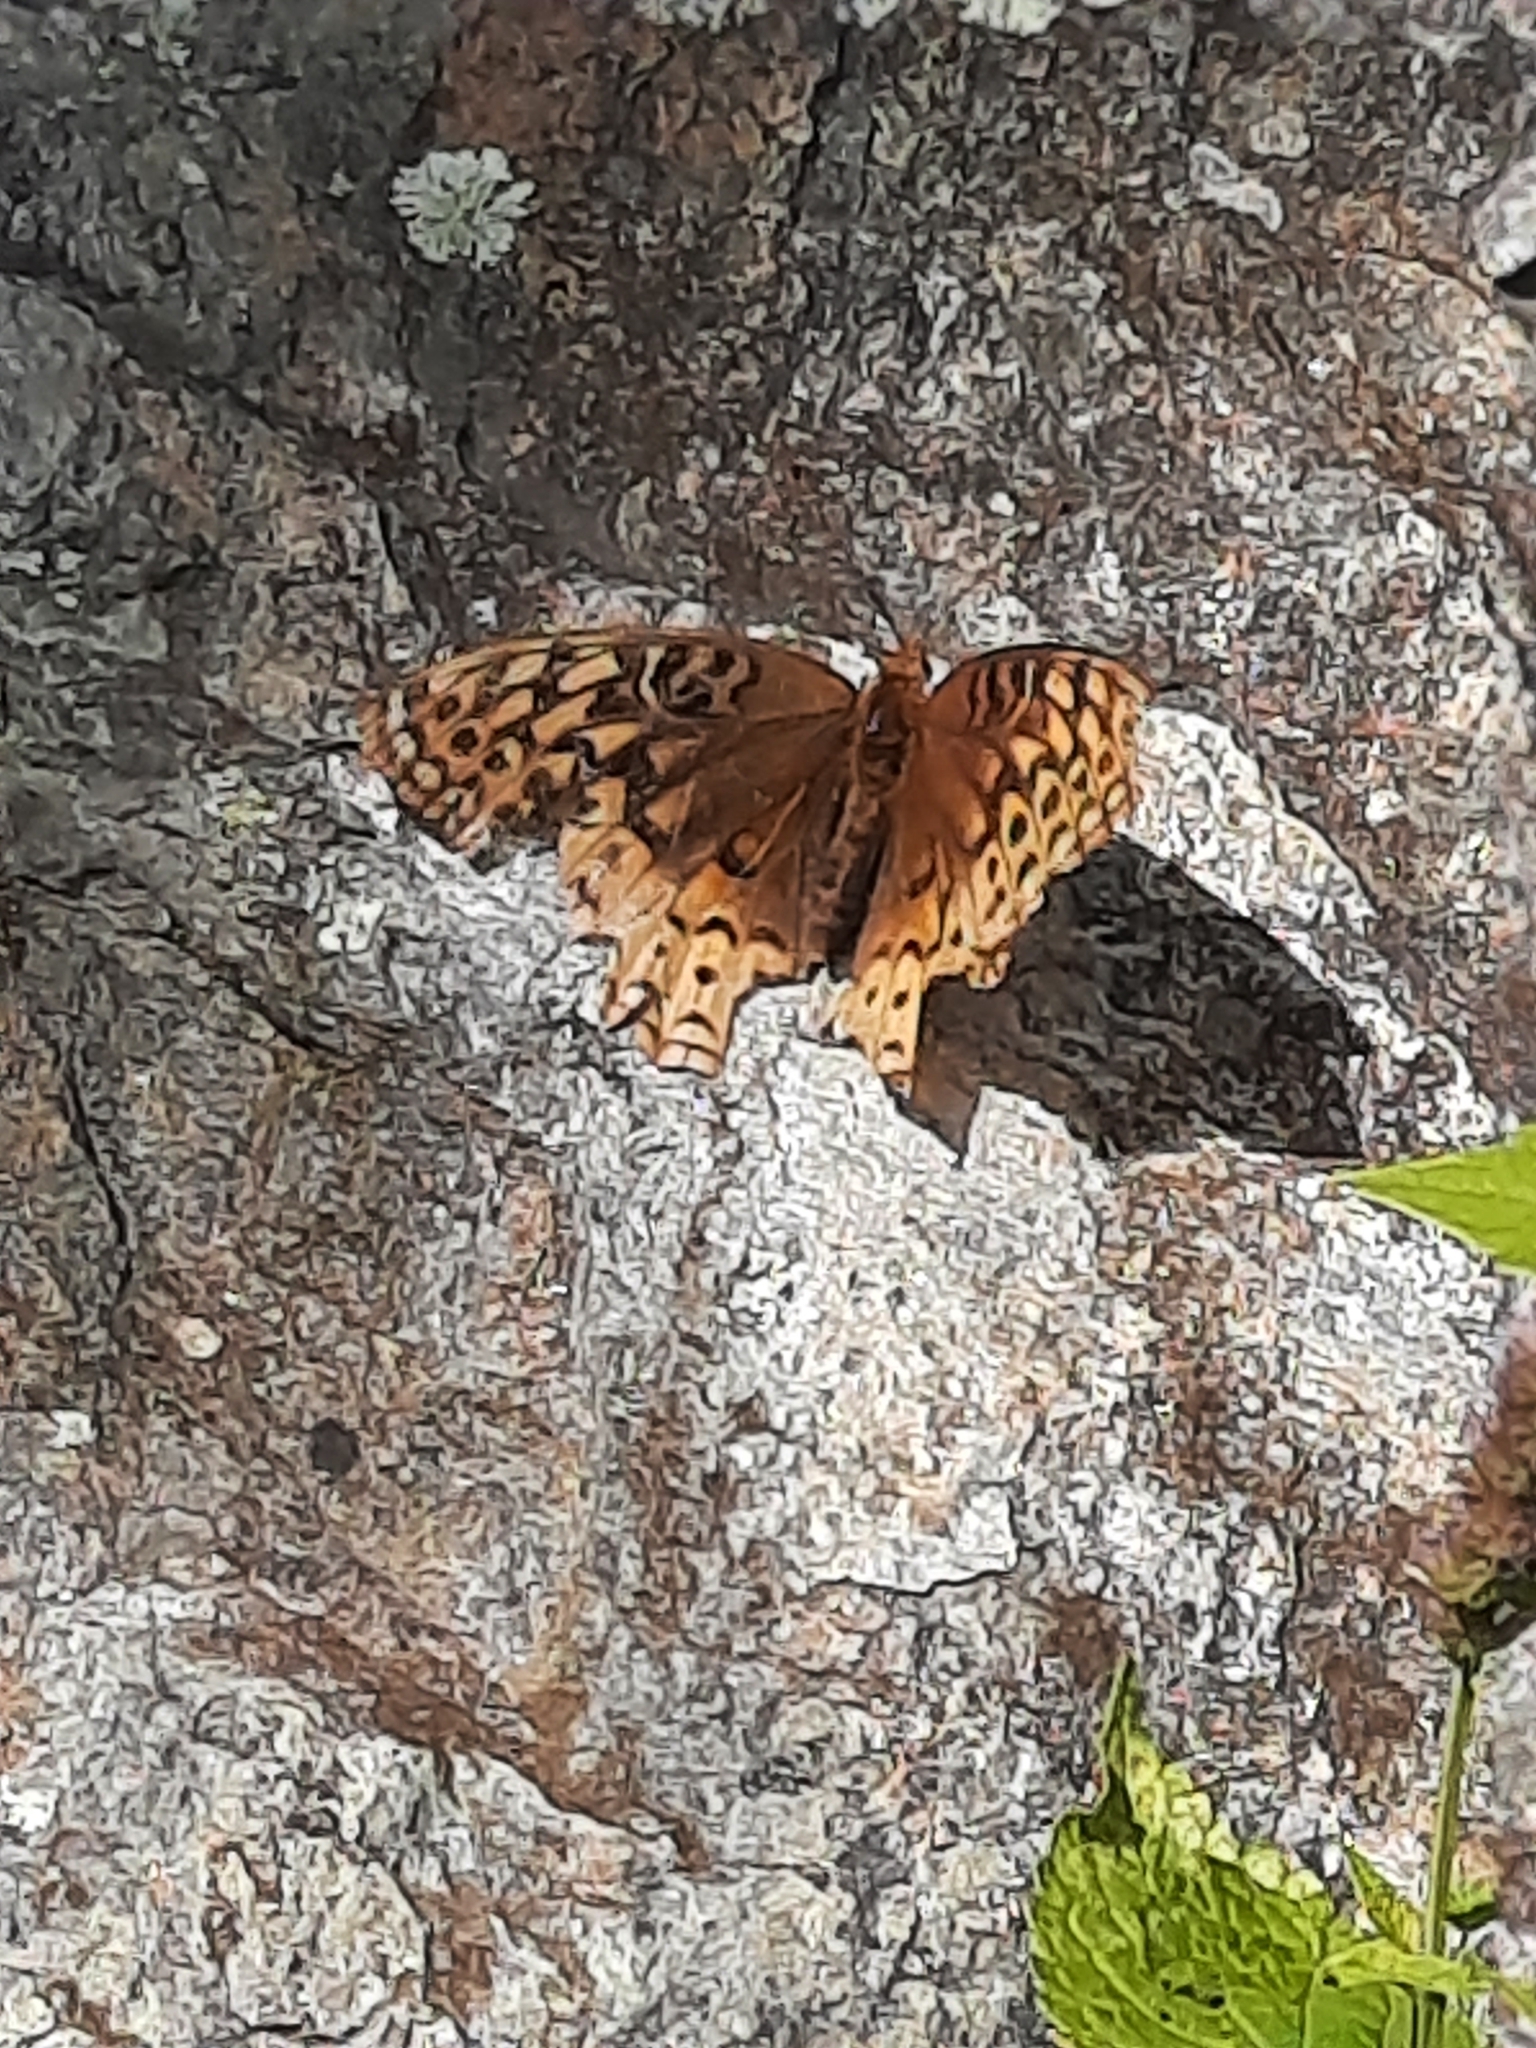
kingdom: Animalia
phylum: Arthropoda
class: Insecta
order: Lepidoptera
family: Nymphalidae
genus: Speyeria
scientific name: Speyeria cybele
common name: Great spangled fritillary
